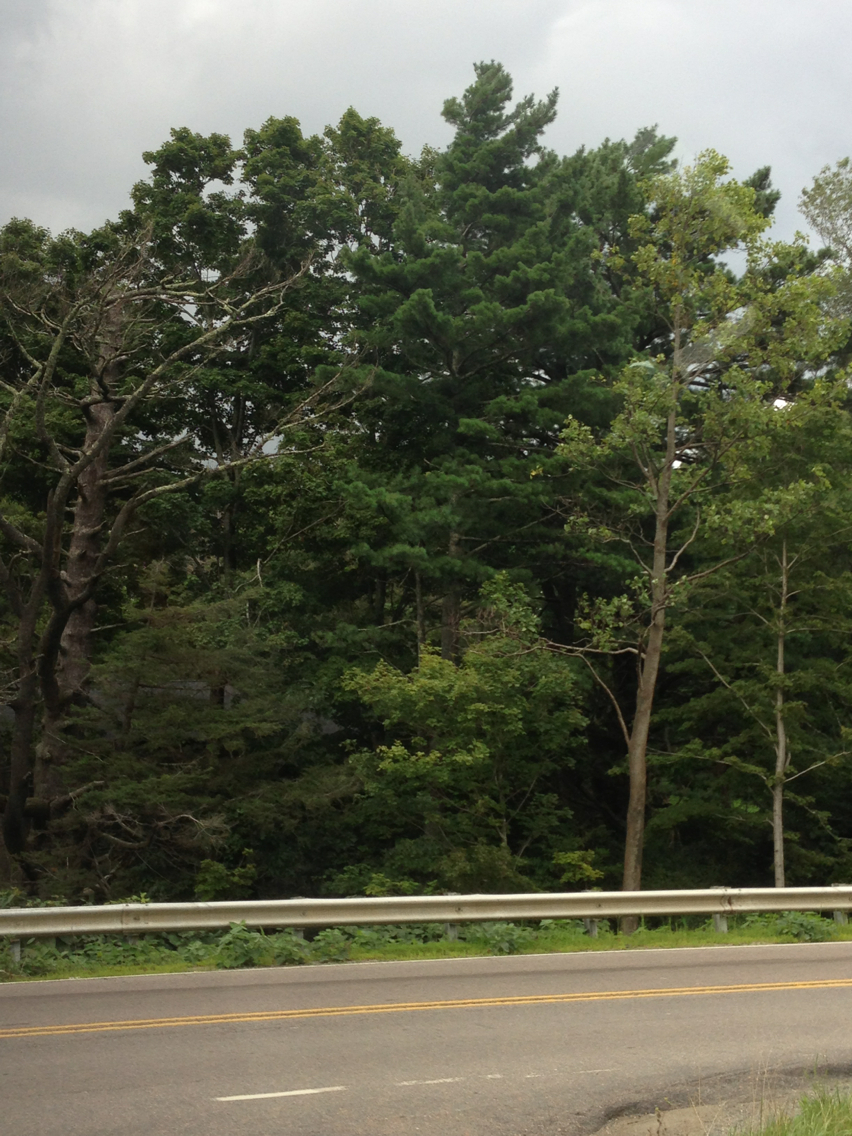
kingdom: Plantae
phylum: Tracheophyta
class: Pinopsida
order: Pinales
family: Pinaceae
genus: Pinus
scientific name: Pinus strobus
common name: Weymouth pine
